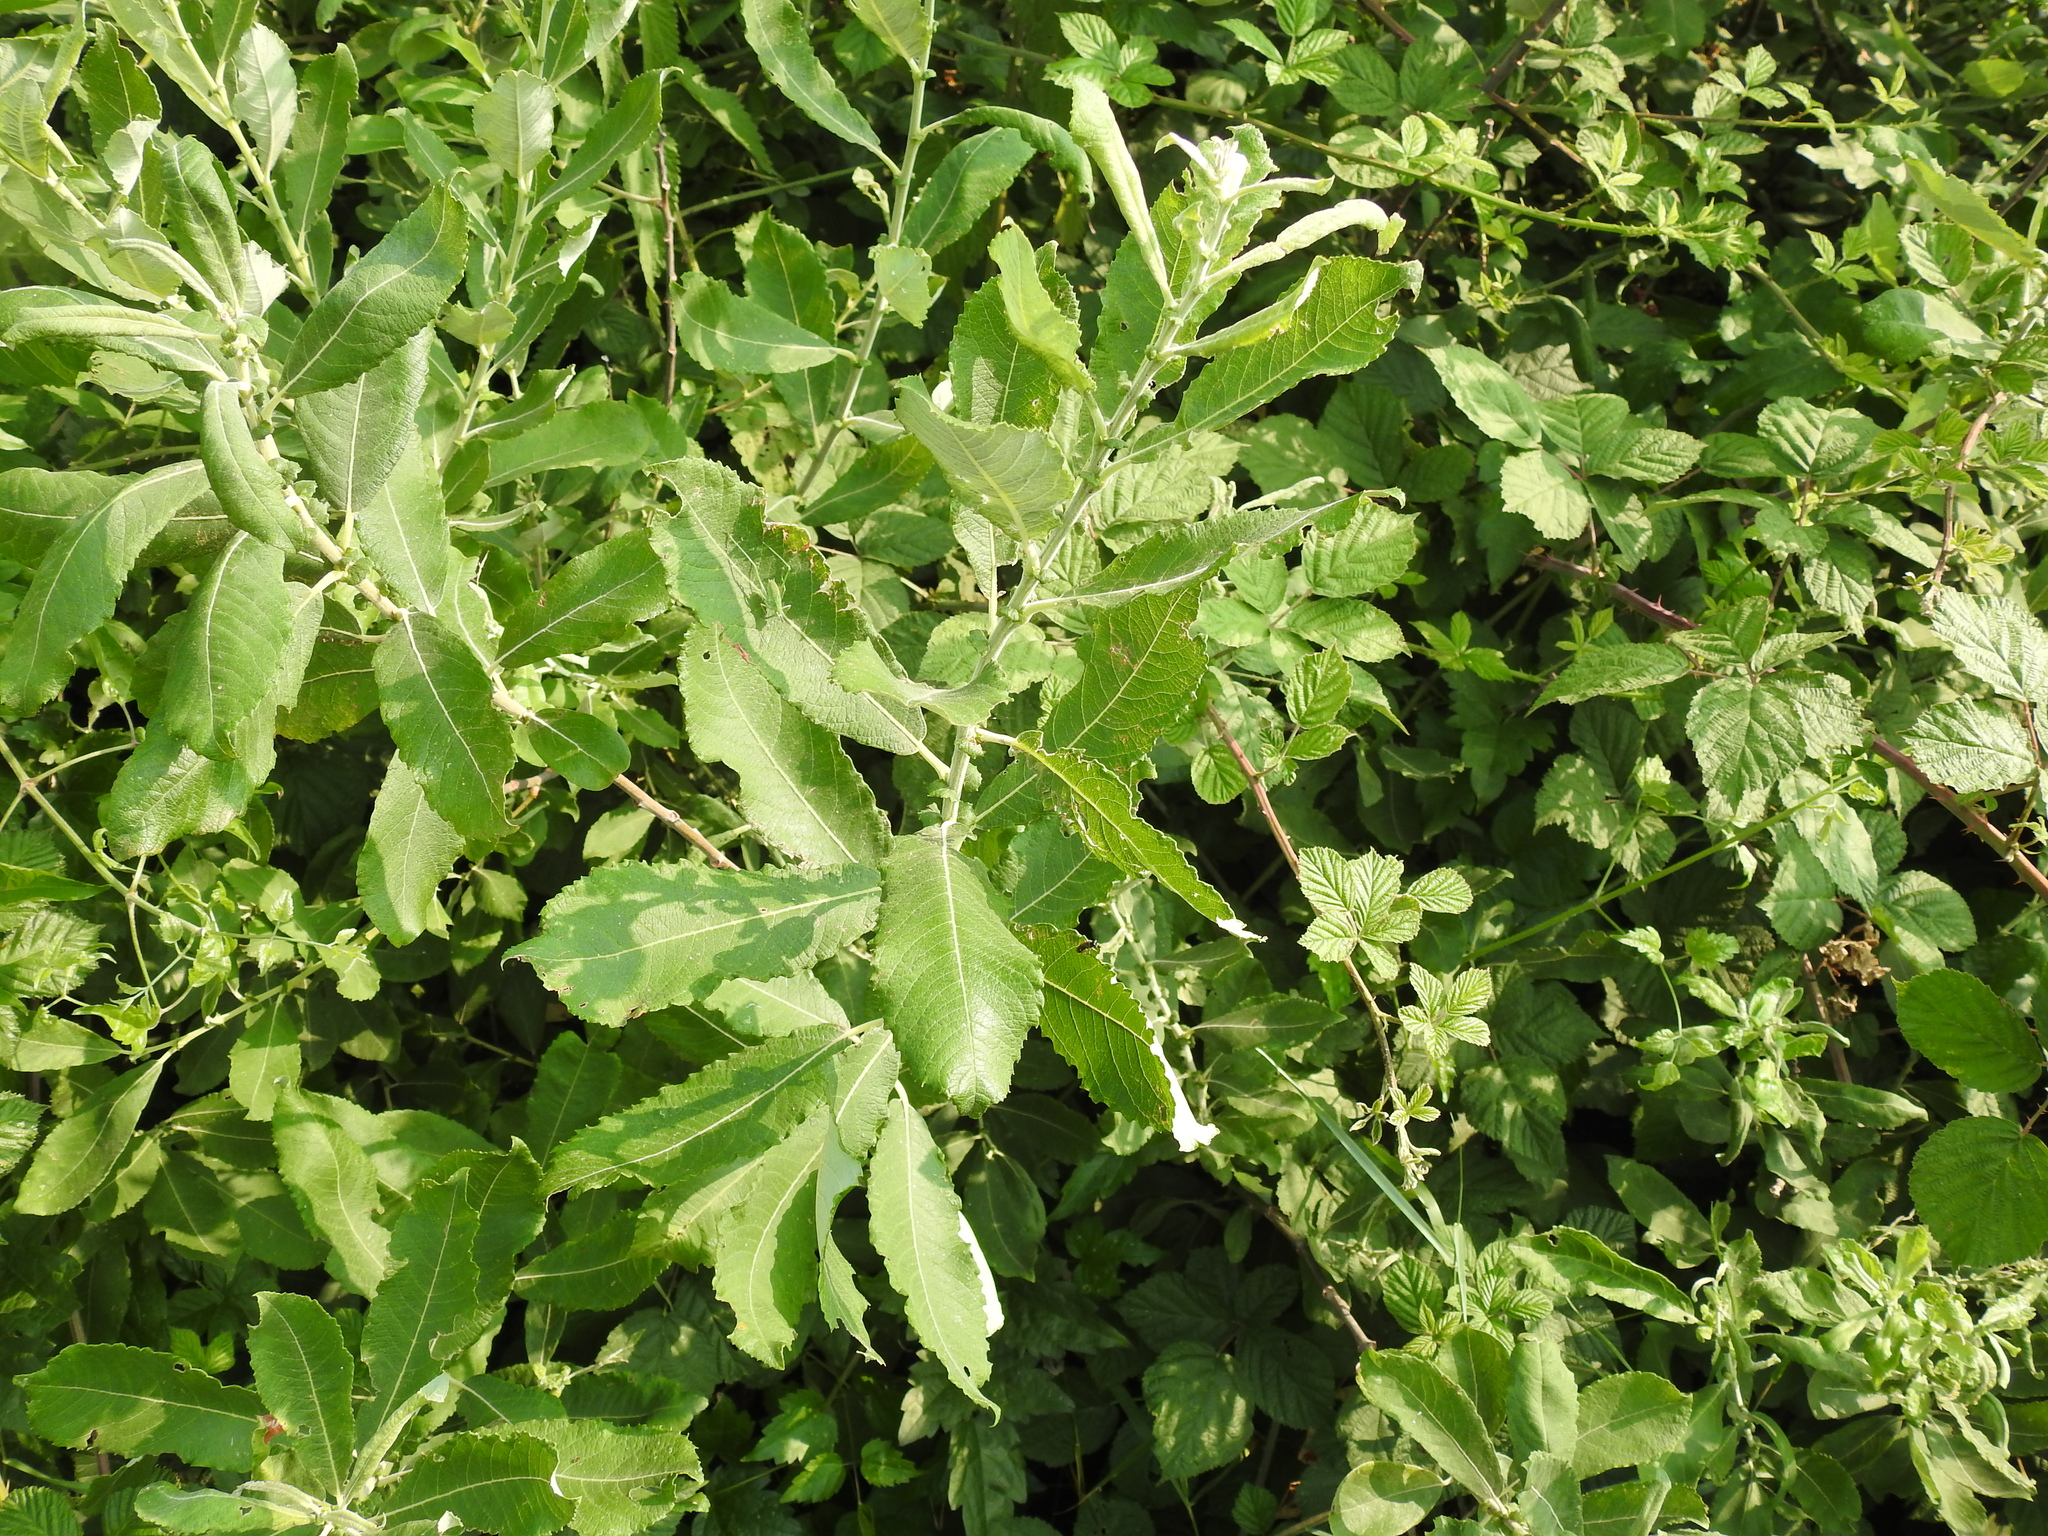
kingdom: Plantae
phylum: Tracheophyta
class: Magnoliopsida
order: Malpighiales
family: Salicaceae
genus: Salix
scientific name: Salix cinerea
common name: Common sallow
